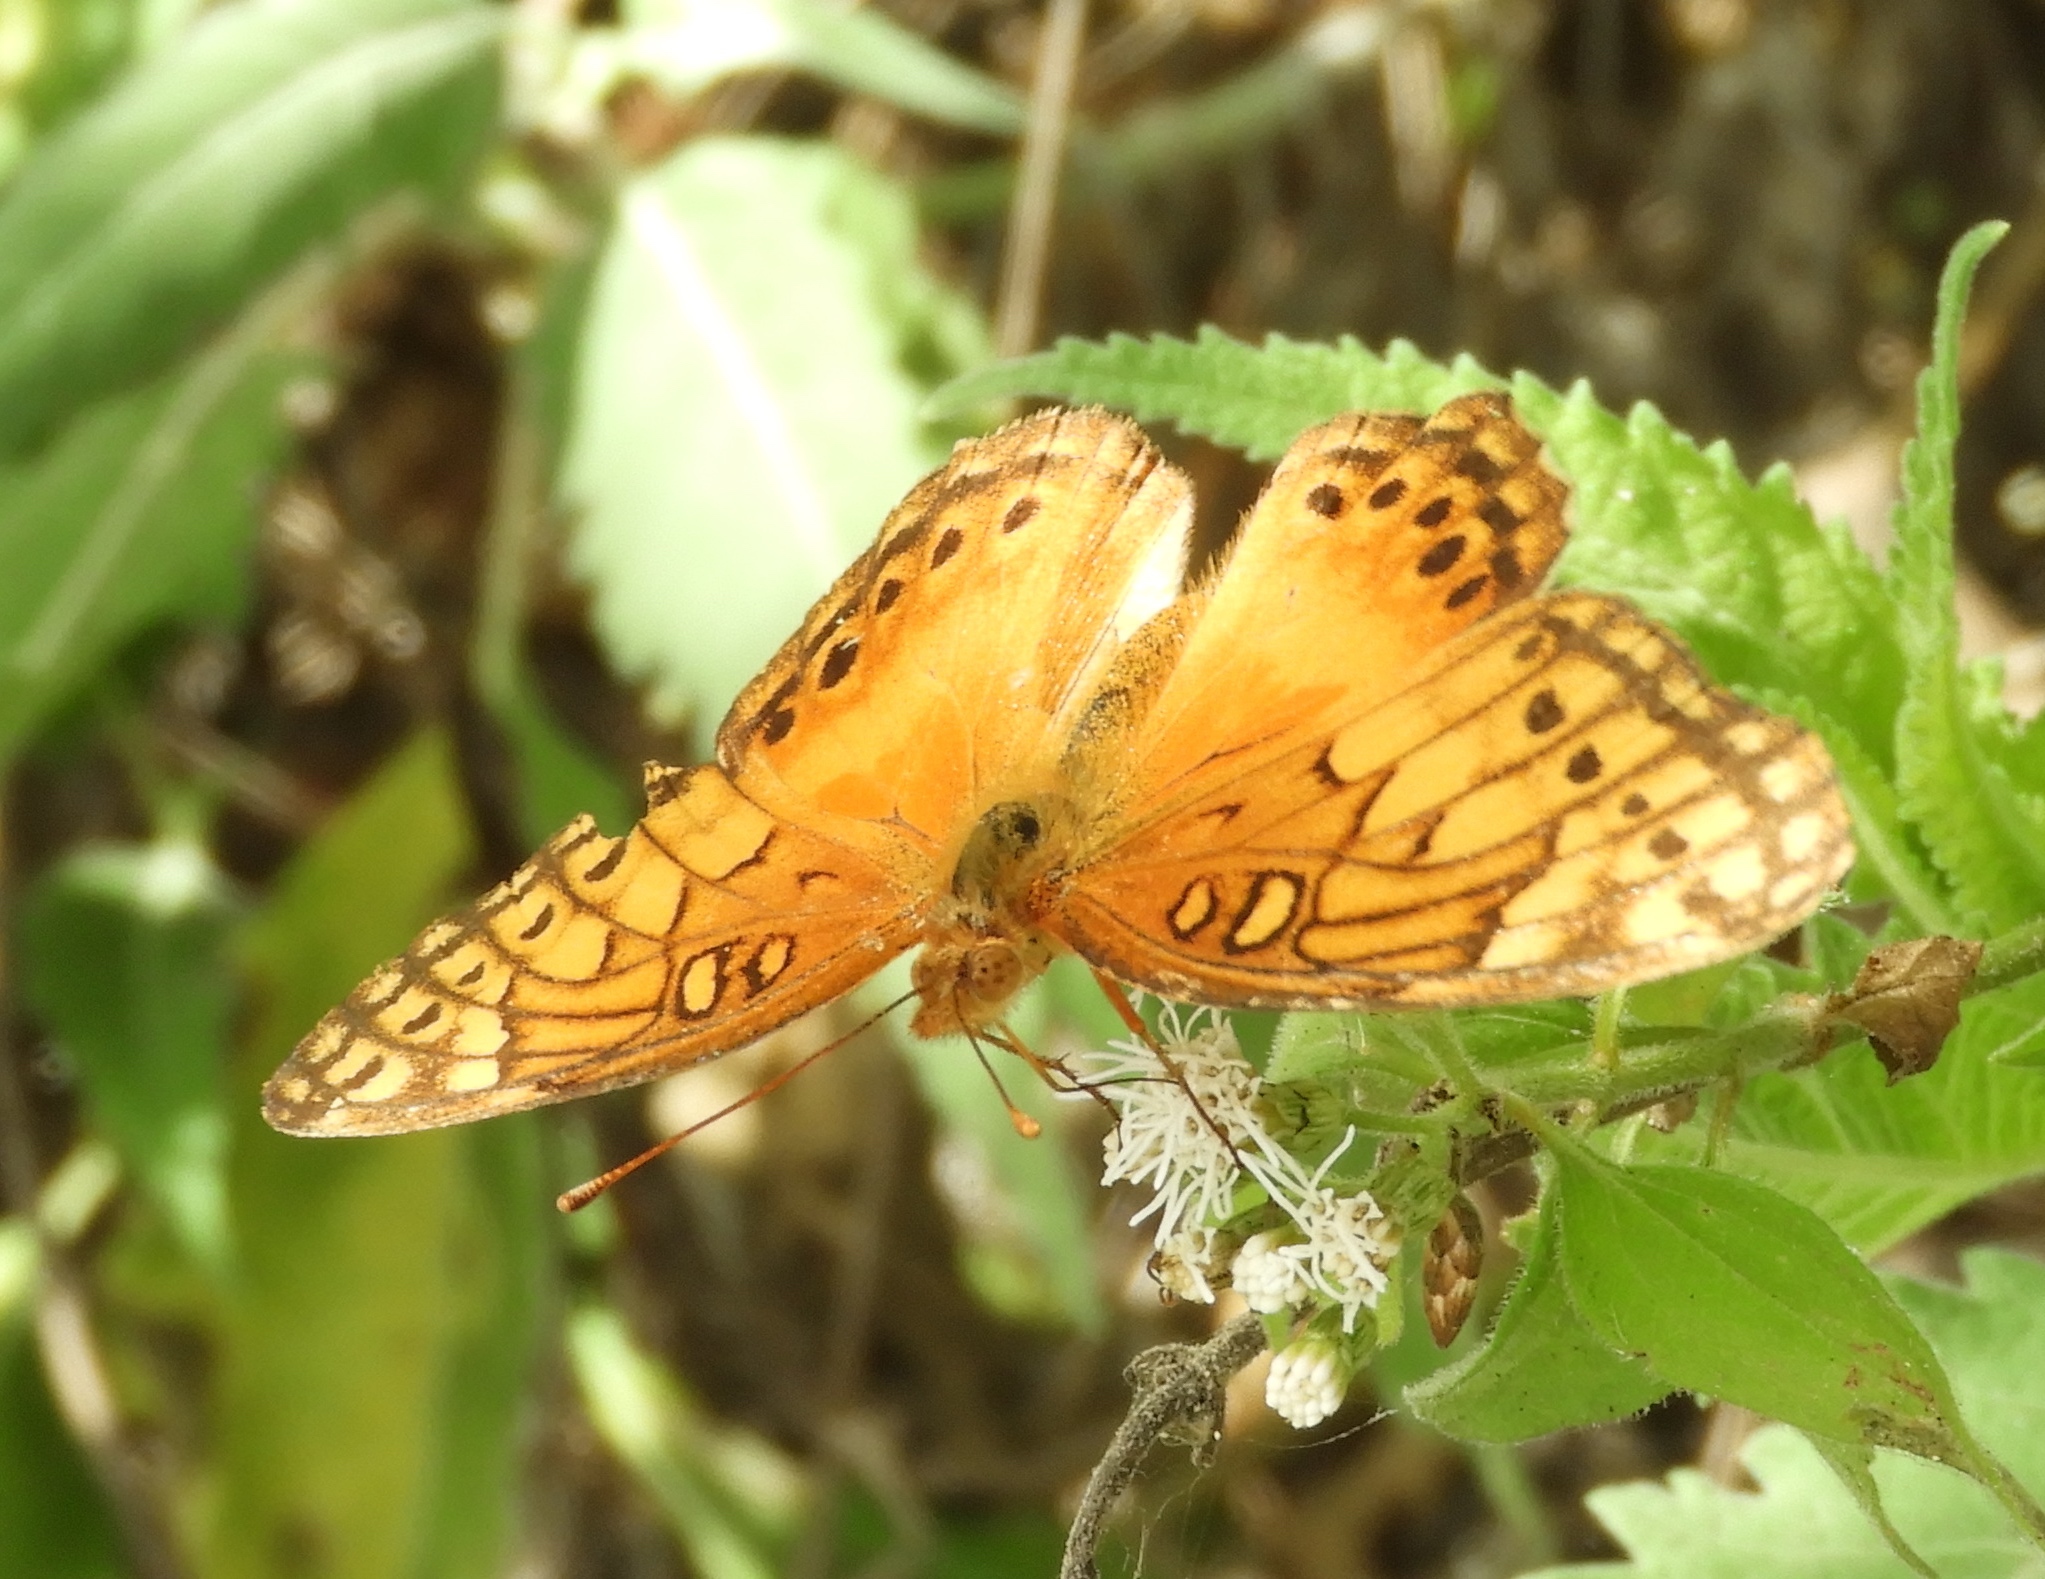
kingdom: Animalia
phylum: Arthropoda
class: Insecta
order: Lepidoptera
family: Nymphalidae
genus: Euptoieta
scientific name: Euptoieta hegesia
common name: Mexican fritillary
